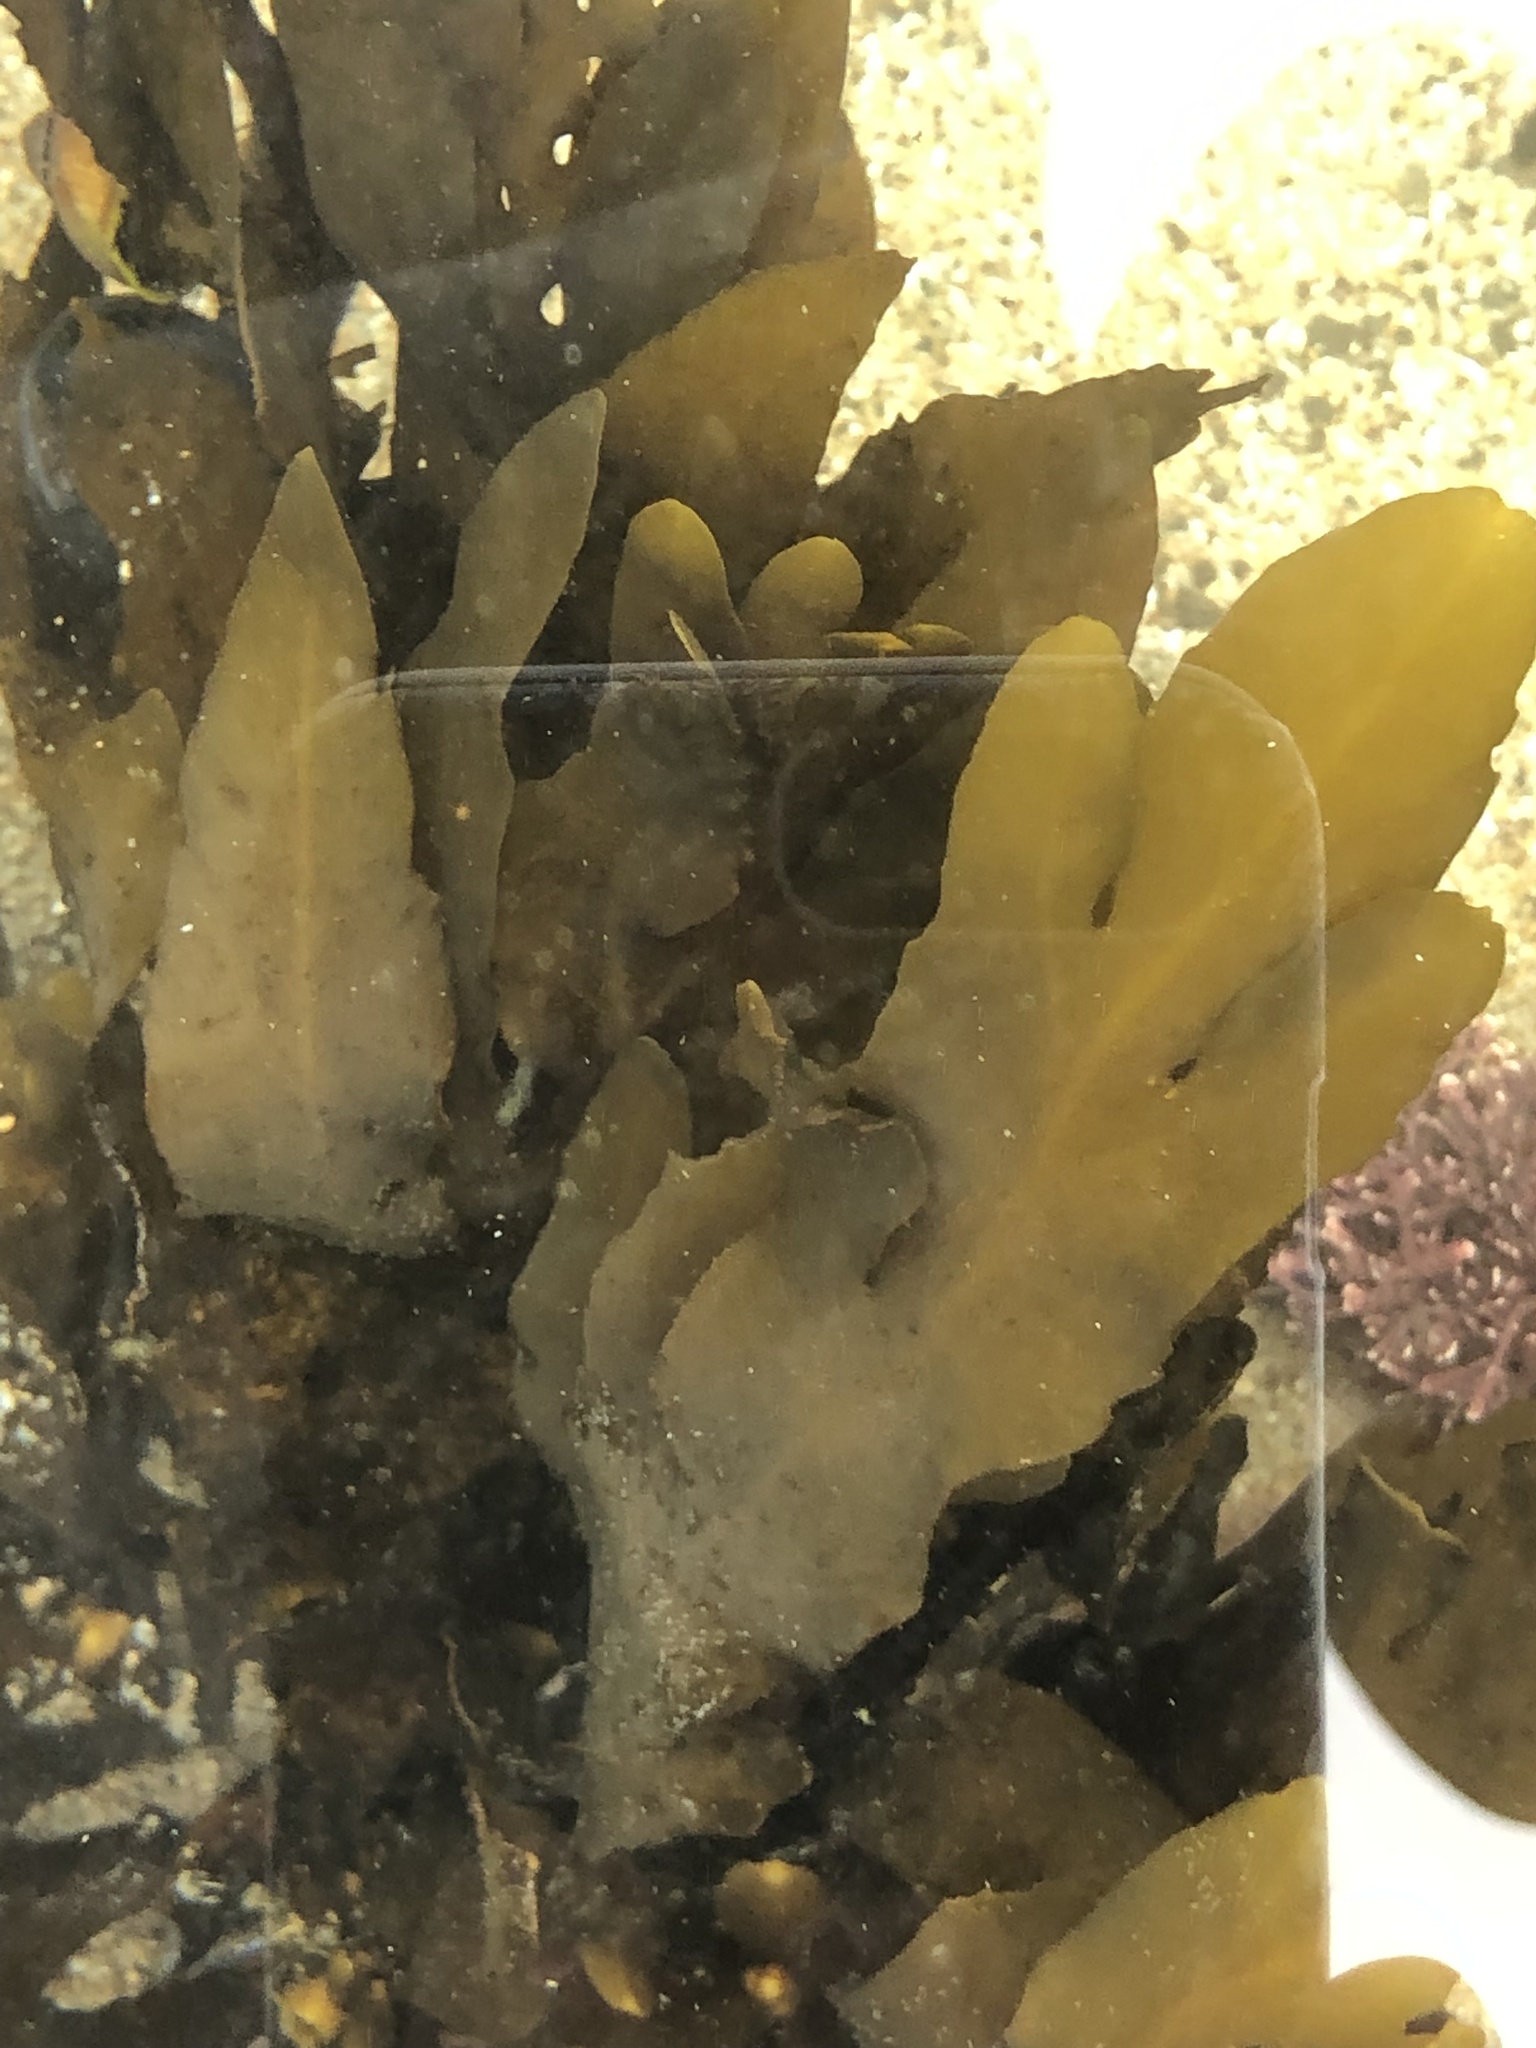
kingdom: Chromista
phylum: Ochrophyta
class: Phaeophyceae
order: Fucales
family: Sargassaceae
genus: Stephanocystis
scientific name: Stephanocystis
